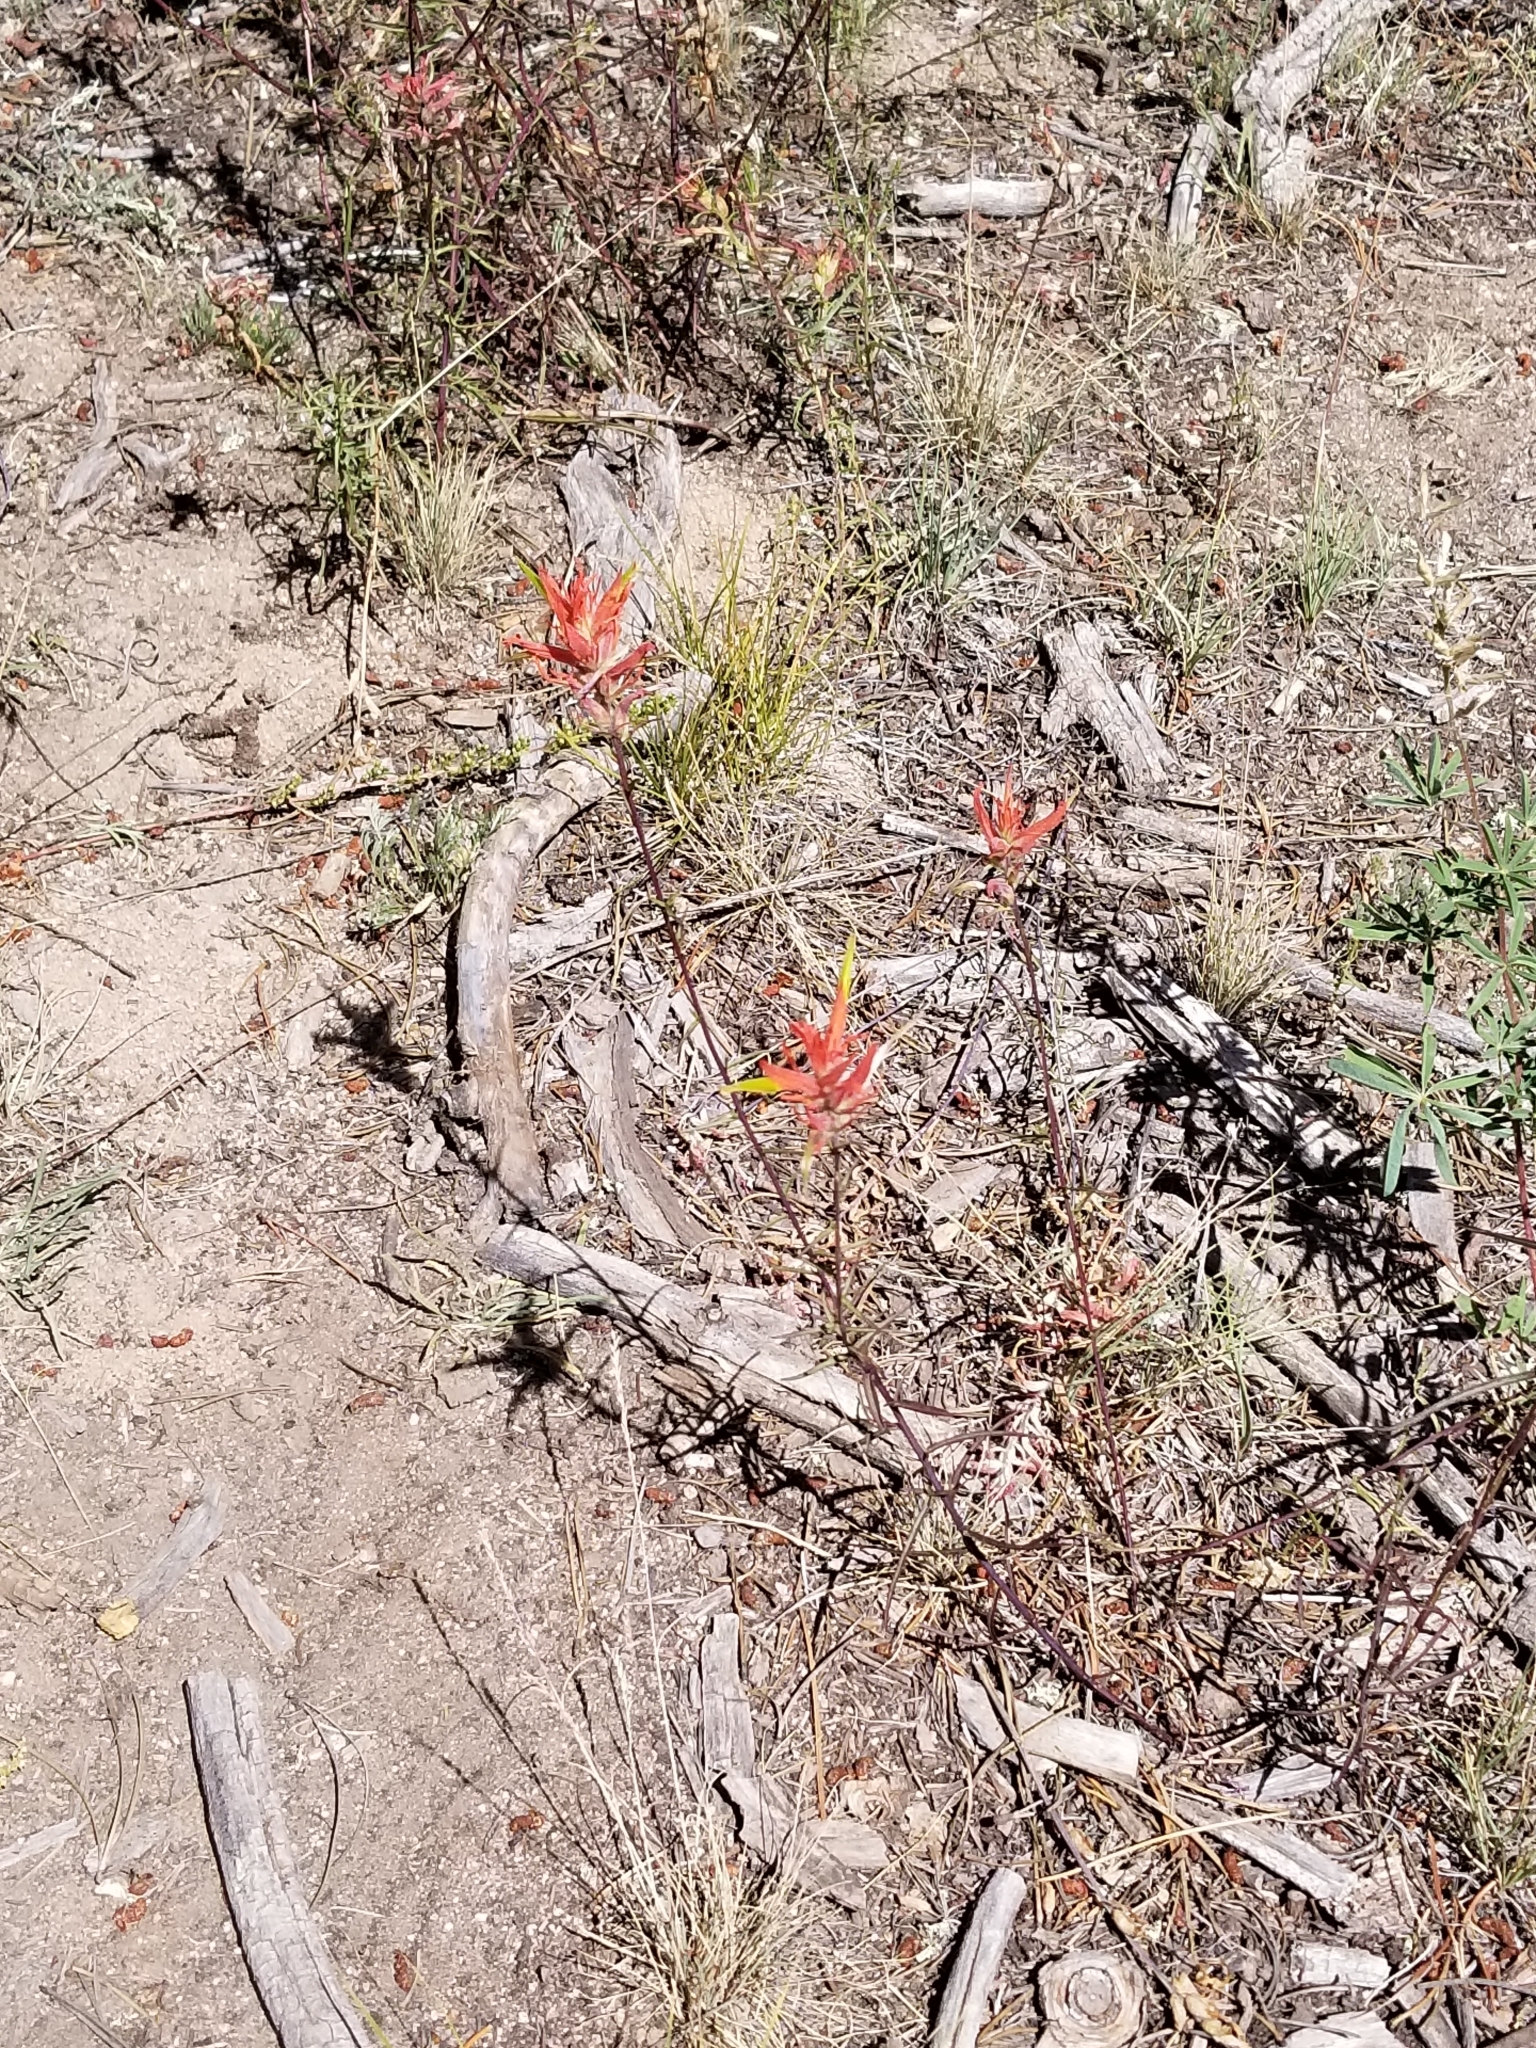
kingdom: Plantae
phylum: Tracheophyta
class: Magnoliopsida
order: Lamiales
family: Orobanchaceae
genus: Castilleja
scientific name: Castilleja linariifolia
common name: Wyoming paintbrush
